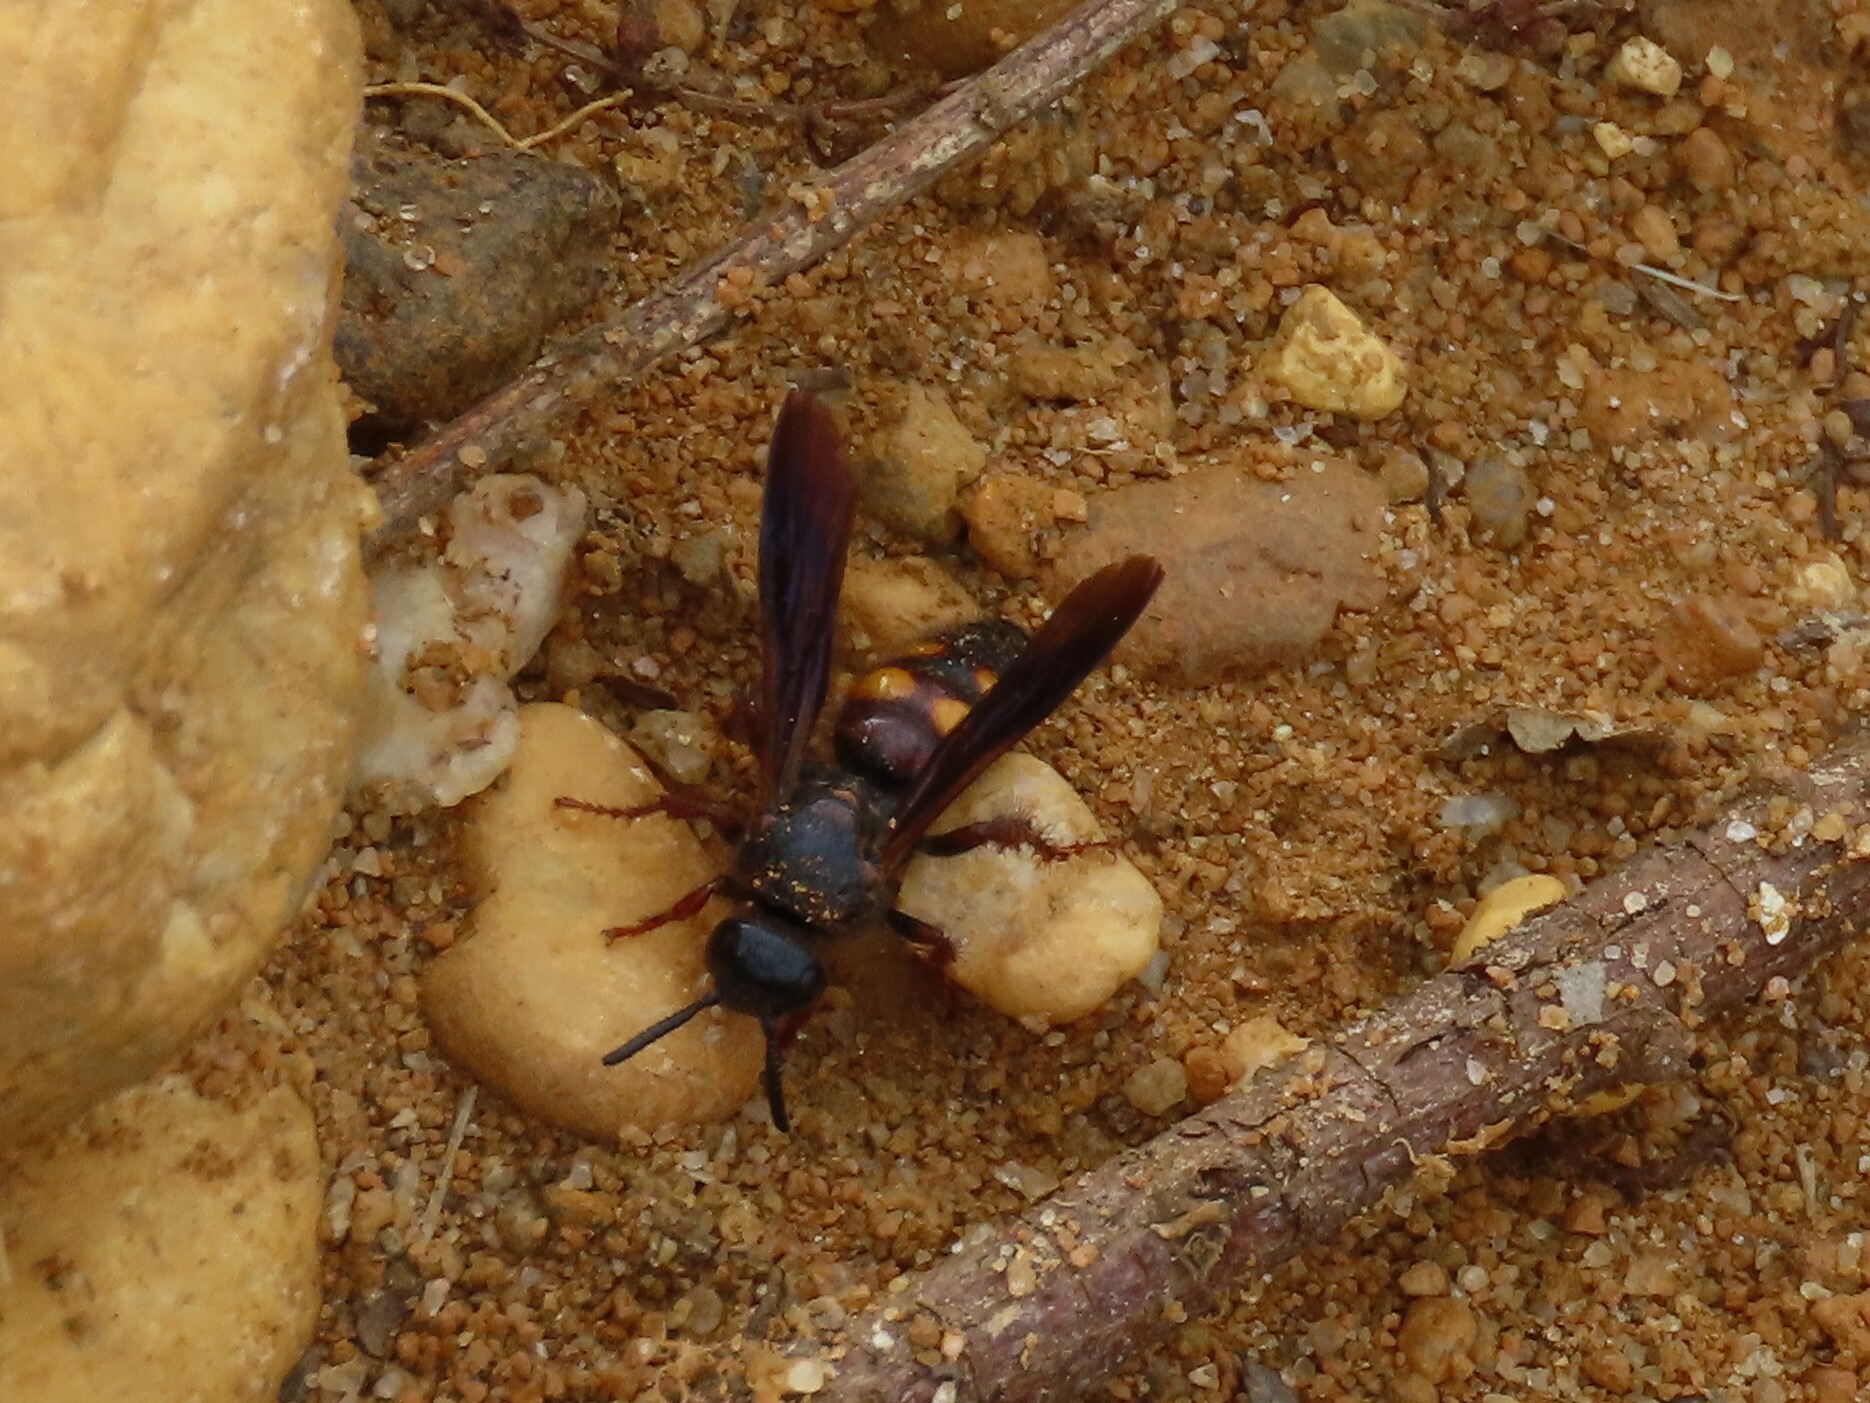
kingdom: Animalia
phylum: Arthropoda
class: Insecta
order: Hymenoptera
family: Scoliidae
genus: Scolia
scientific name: Scolia nobilitata
